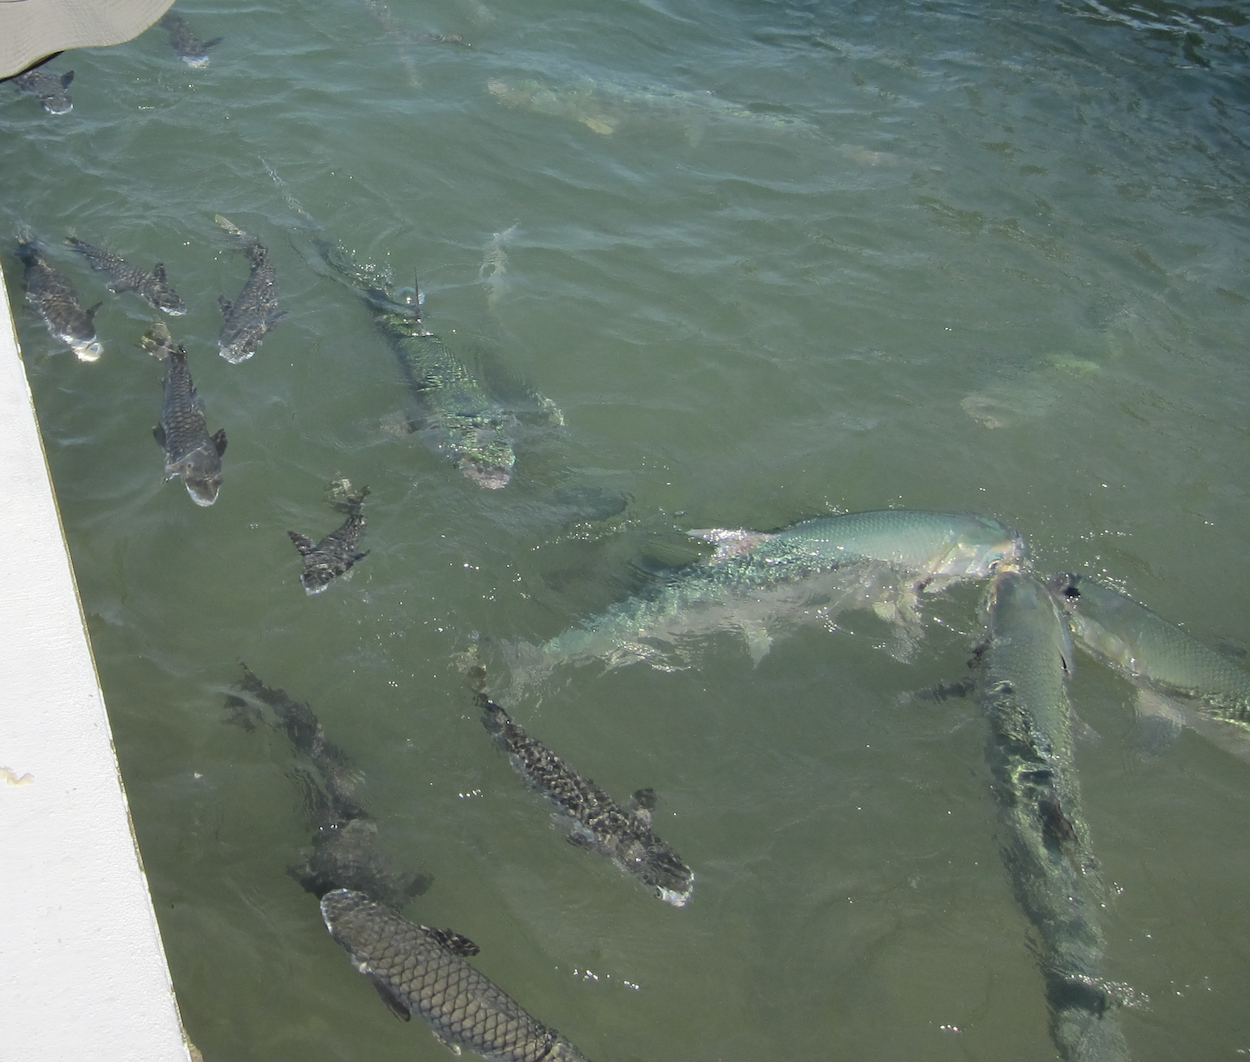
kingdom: Animalia
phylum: Chordata
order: Gonorynchiformes
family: Chanidae
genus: Chanos
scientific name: Chanos chanos
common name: Milkfish
